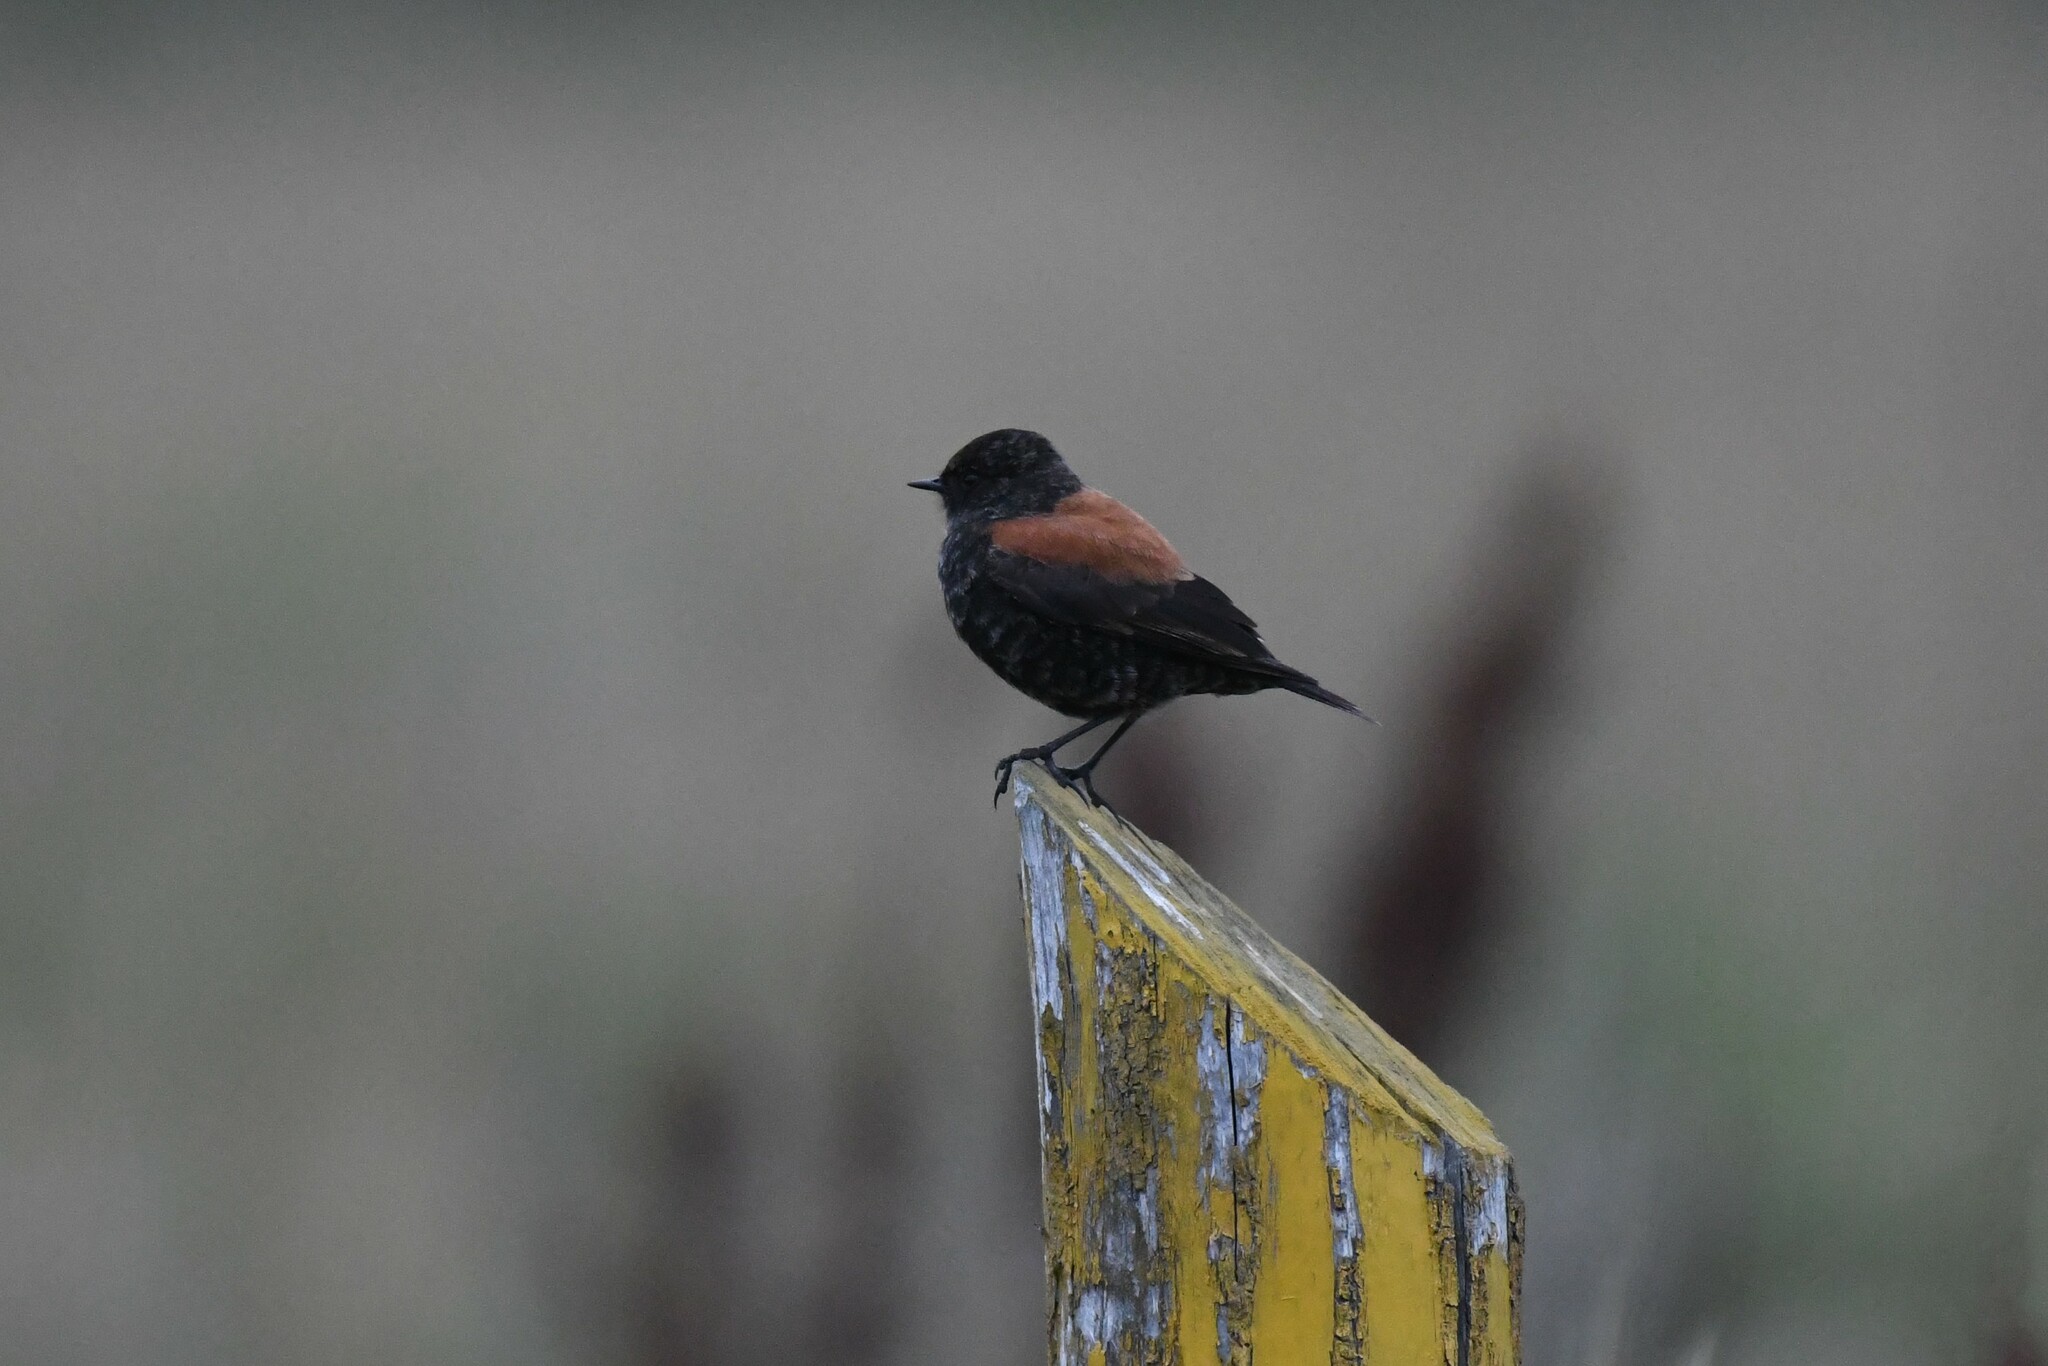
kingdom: Animalia
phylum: Chordata
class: Aves
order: Passeriformes
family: Tyrannidae
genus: Lessonia
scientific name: Lessonia rufa
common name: Austral negrito
